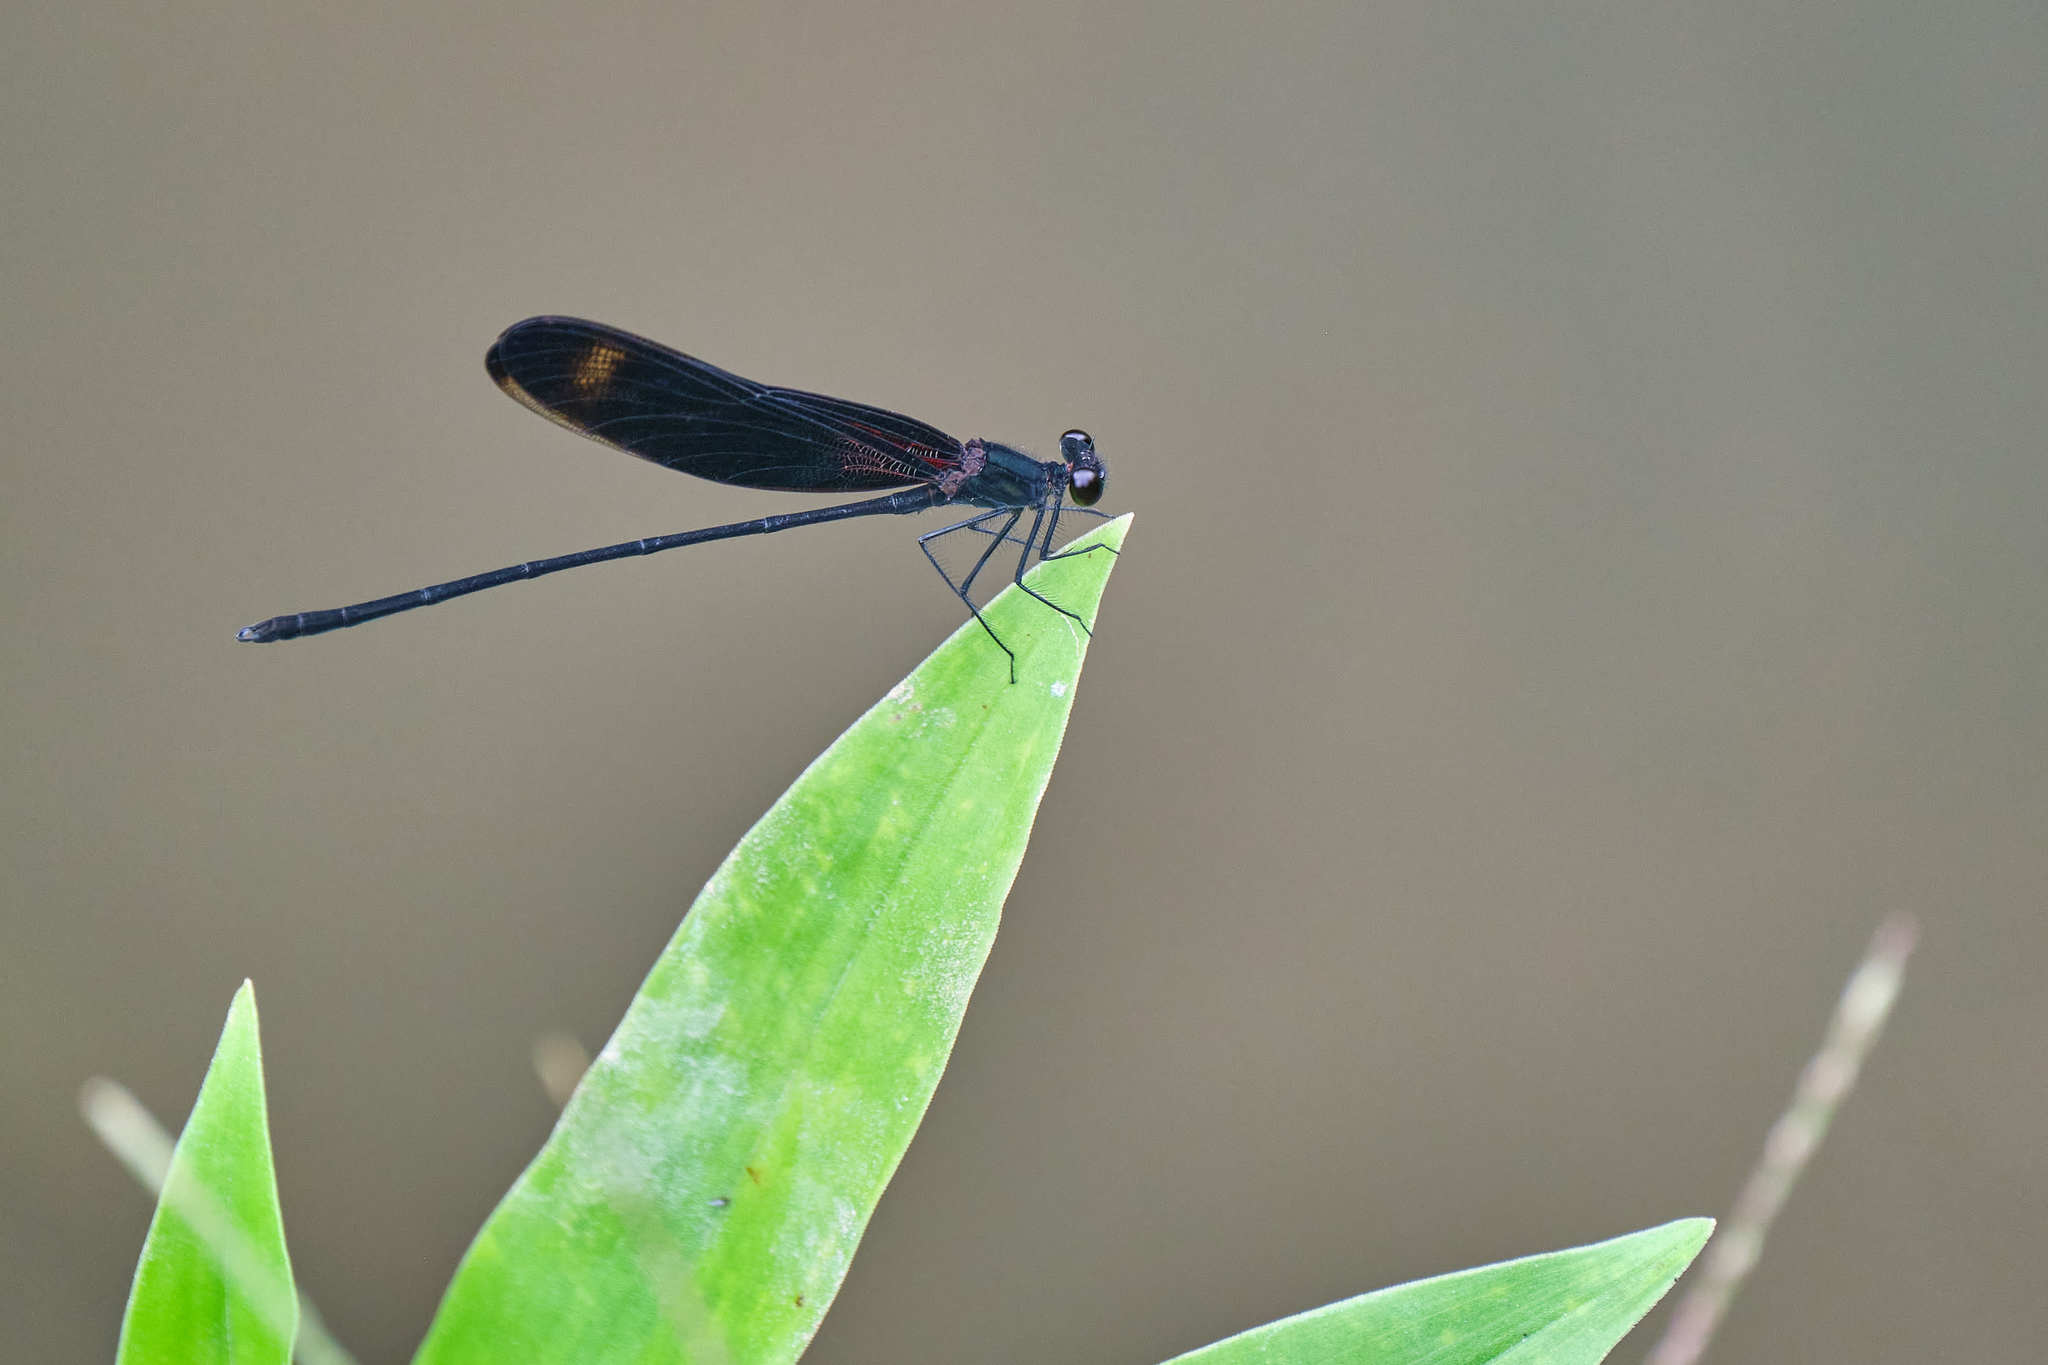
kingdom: Animalia
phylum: Arthropoda
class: Insecta
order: Odonata
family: Calopterygidae
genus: Hetaerina
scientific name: Hetaerina titia
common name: Smoky rubyspot
